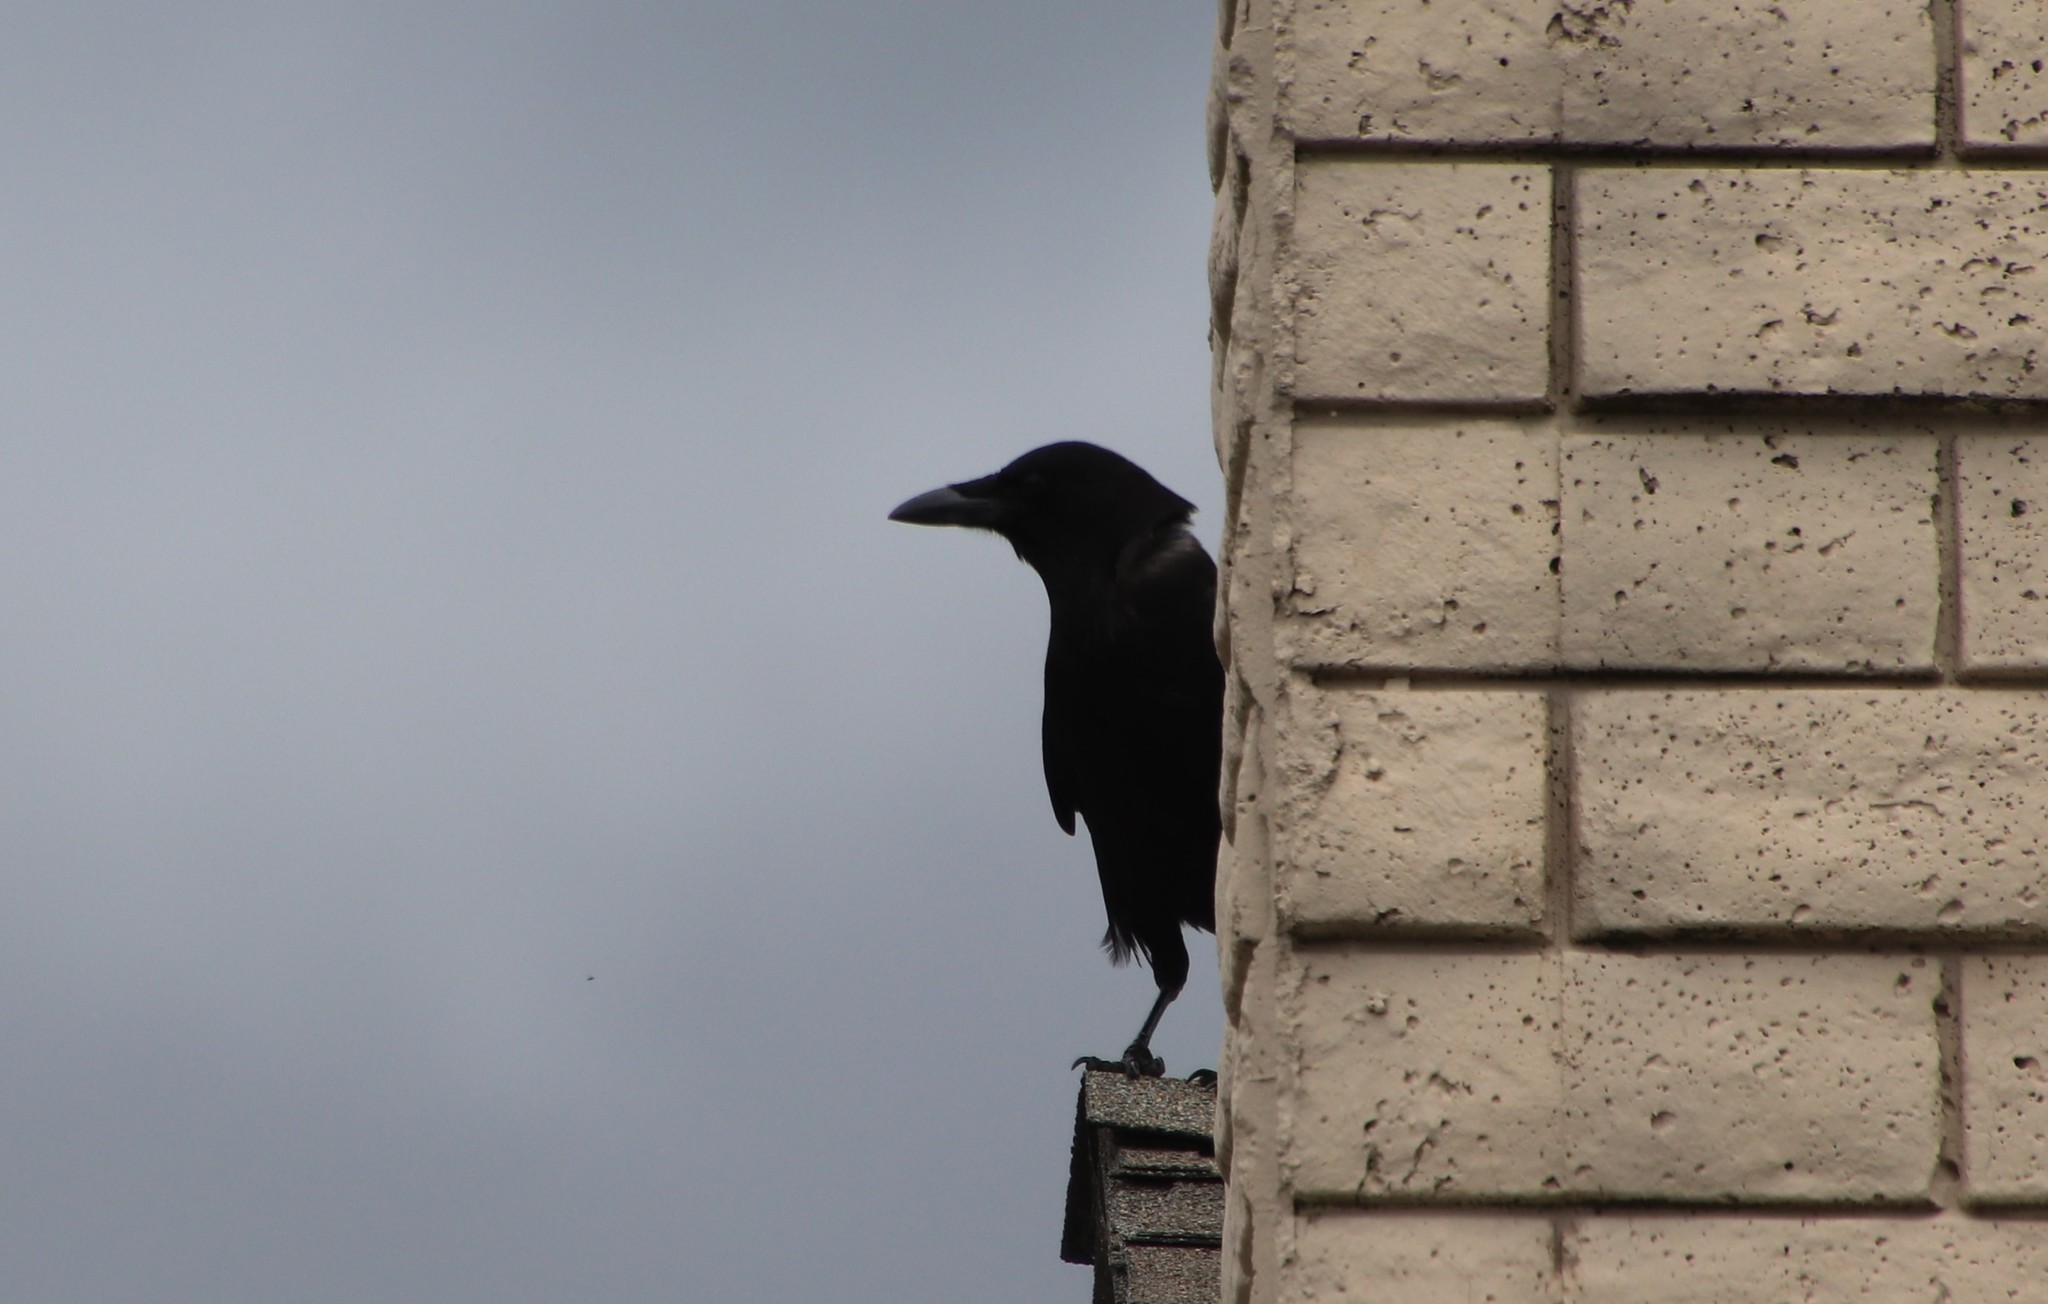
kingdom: Animalia
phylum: Chordata
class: Aves
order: Passeriformes
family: Corvidae
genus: Corvus
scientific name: Corvus brachyrhynchos
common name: American crow
